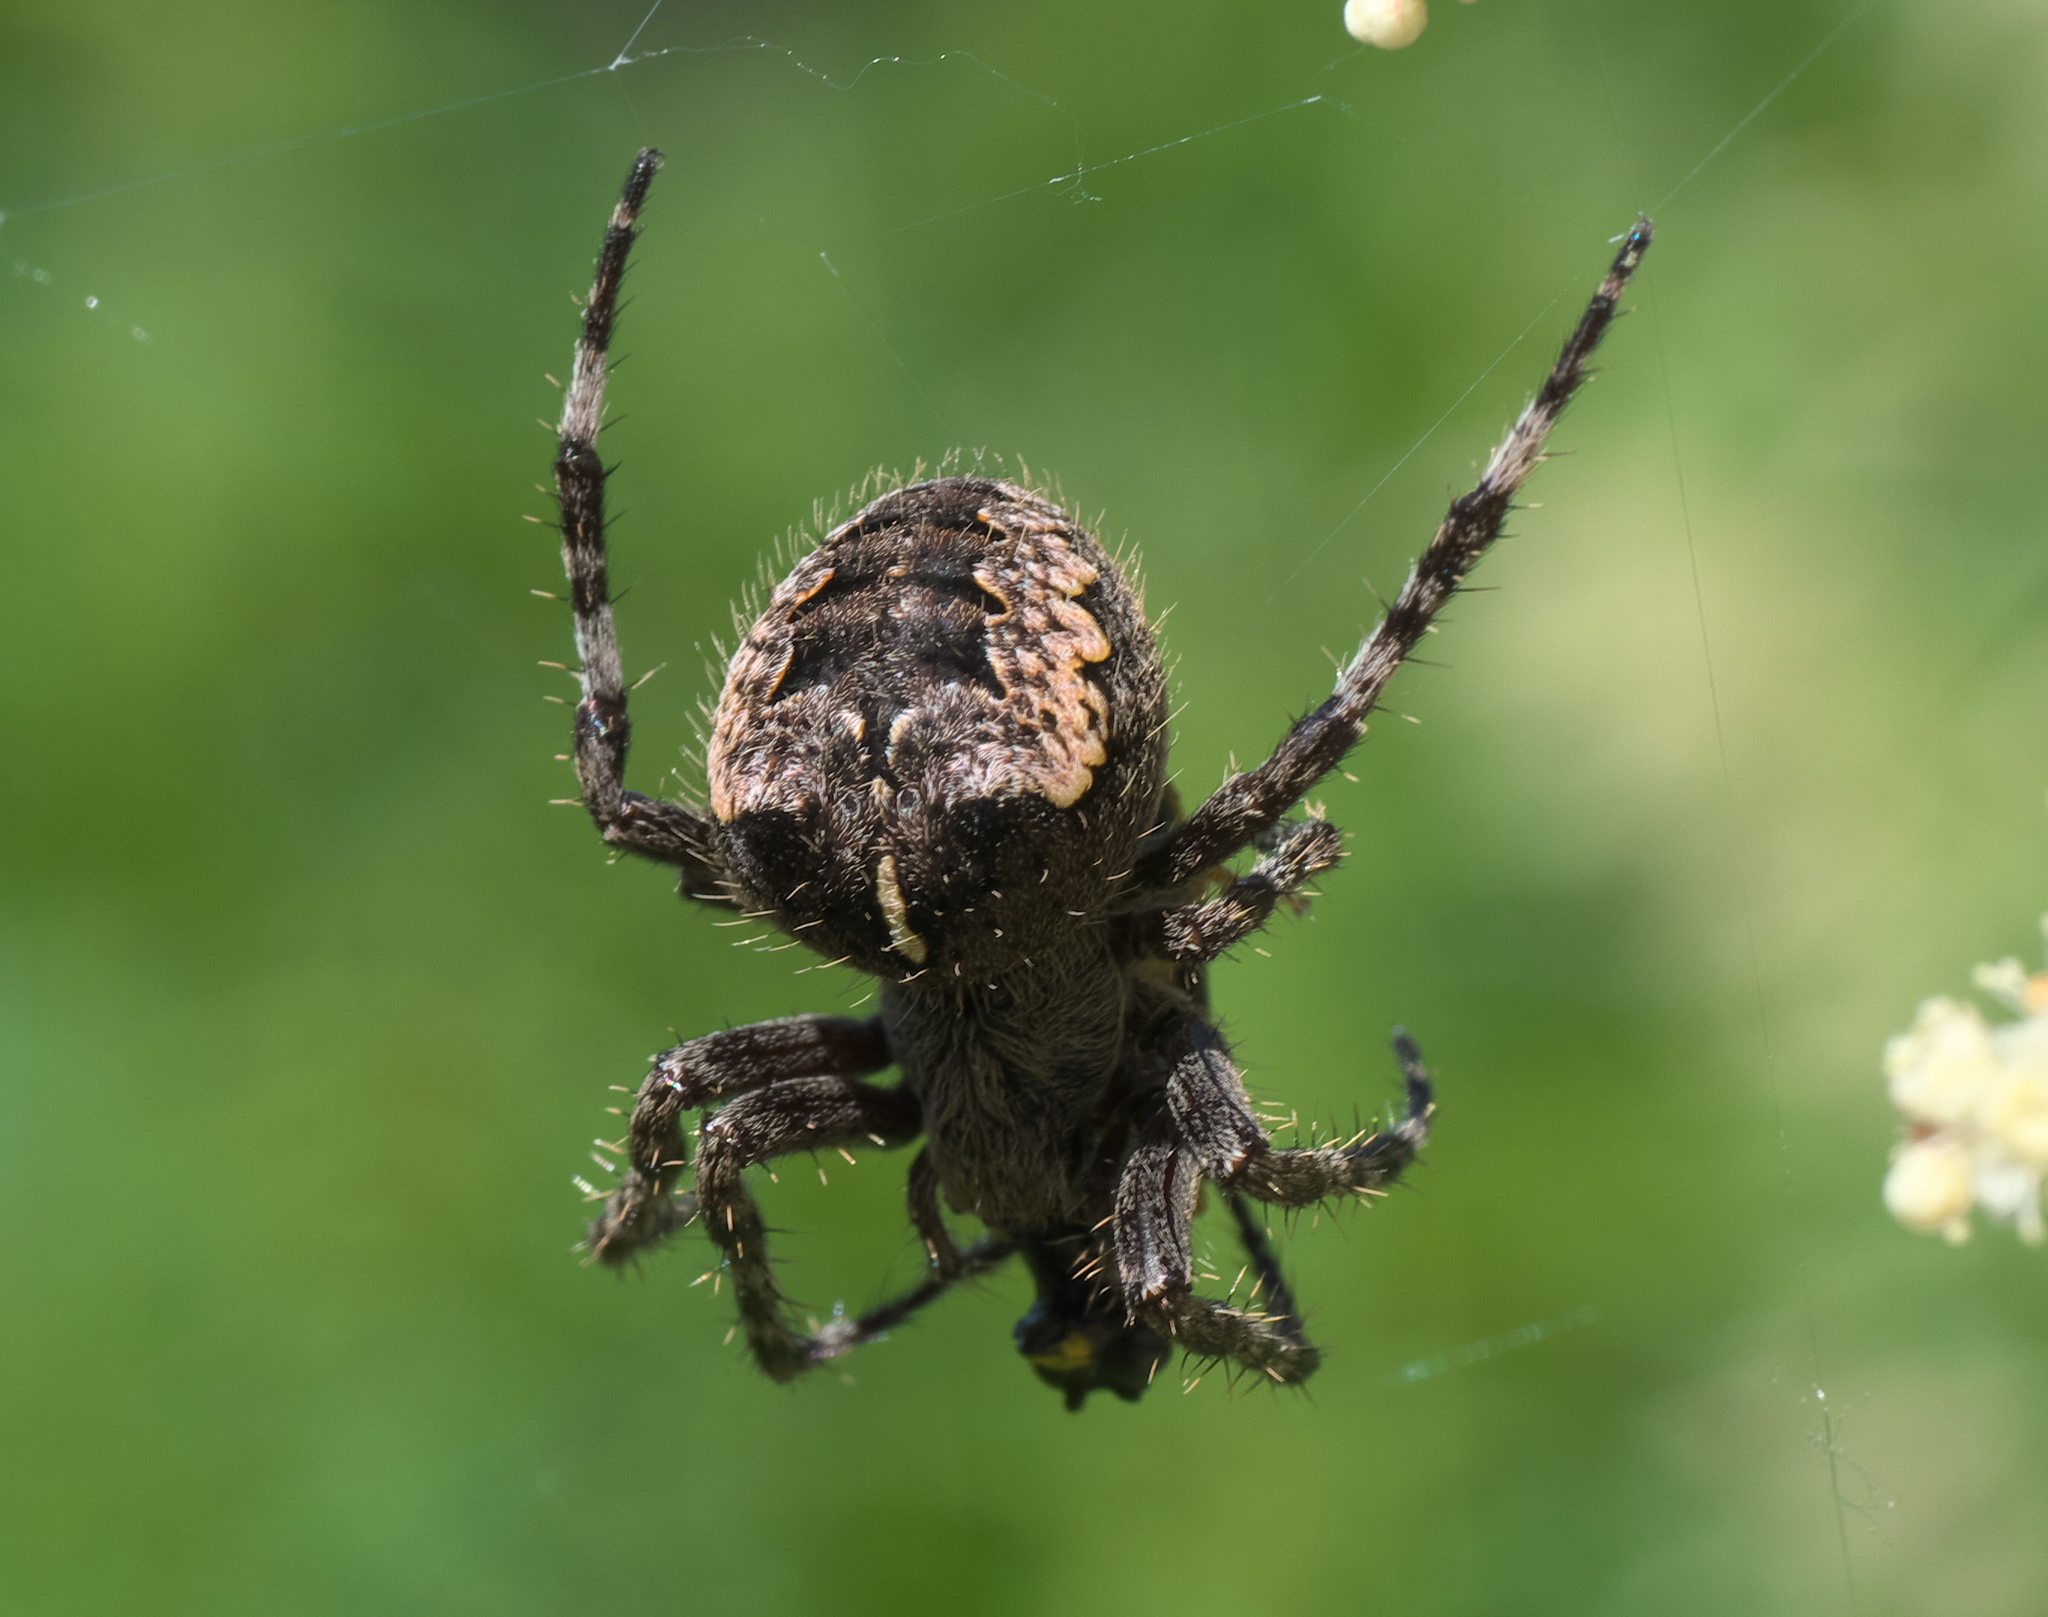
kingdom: Animalia
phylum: Arthropoda
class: Arachnida
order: Araneae
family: Araneidae
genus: Araneus
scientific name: Araneus nordmanni
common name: Nordmann's orbweaver
